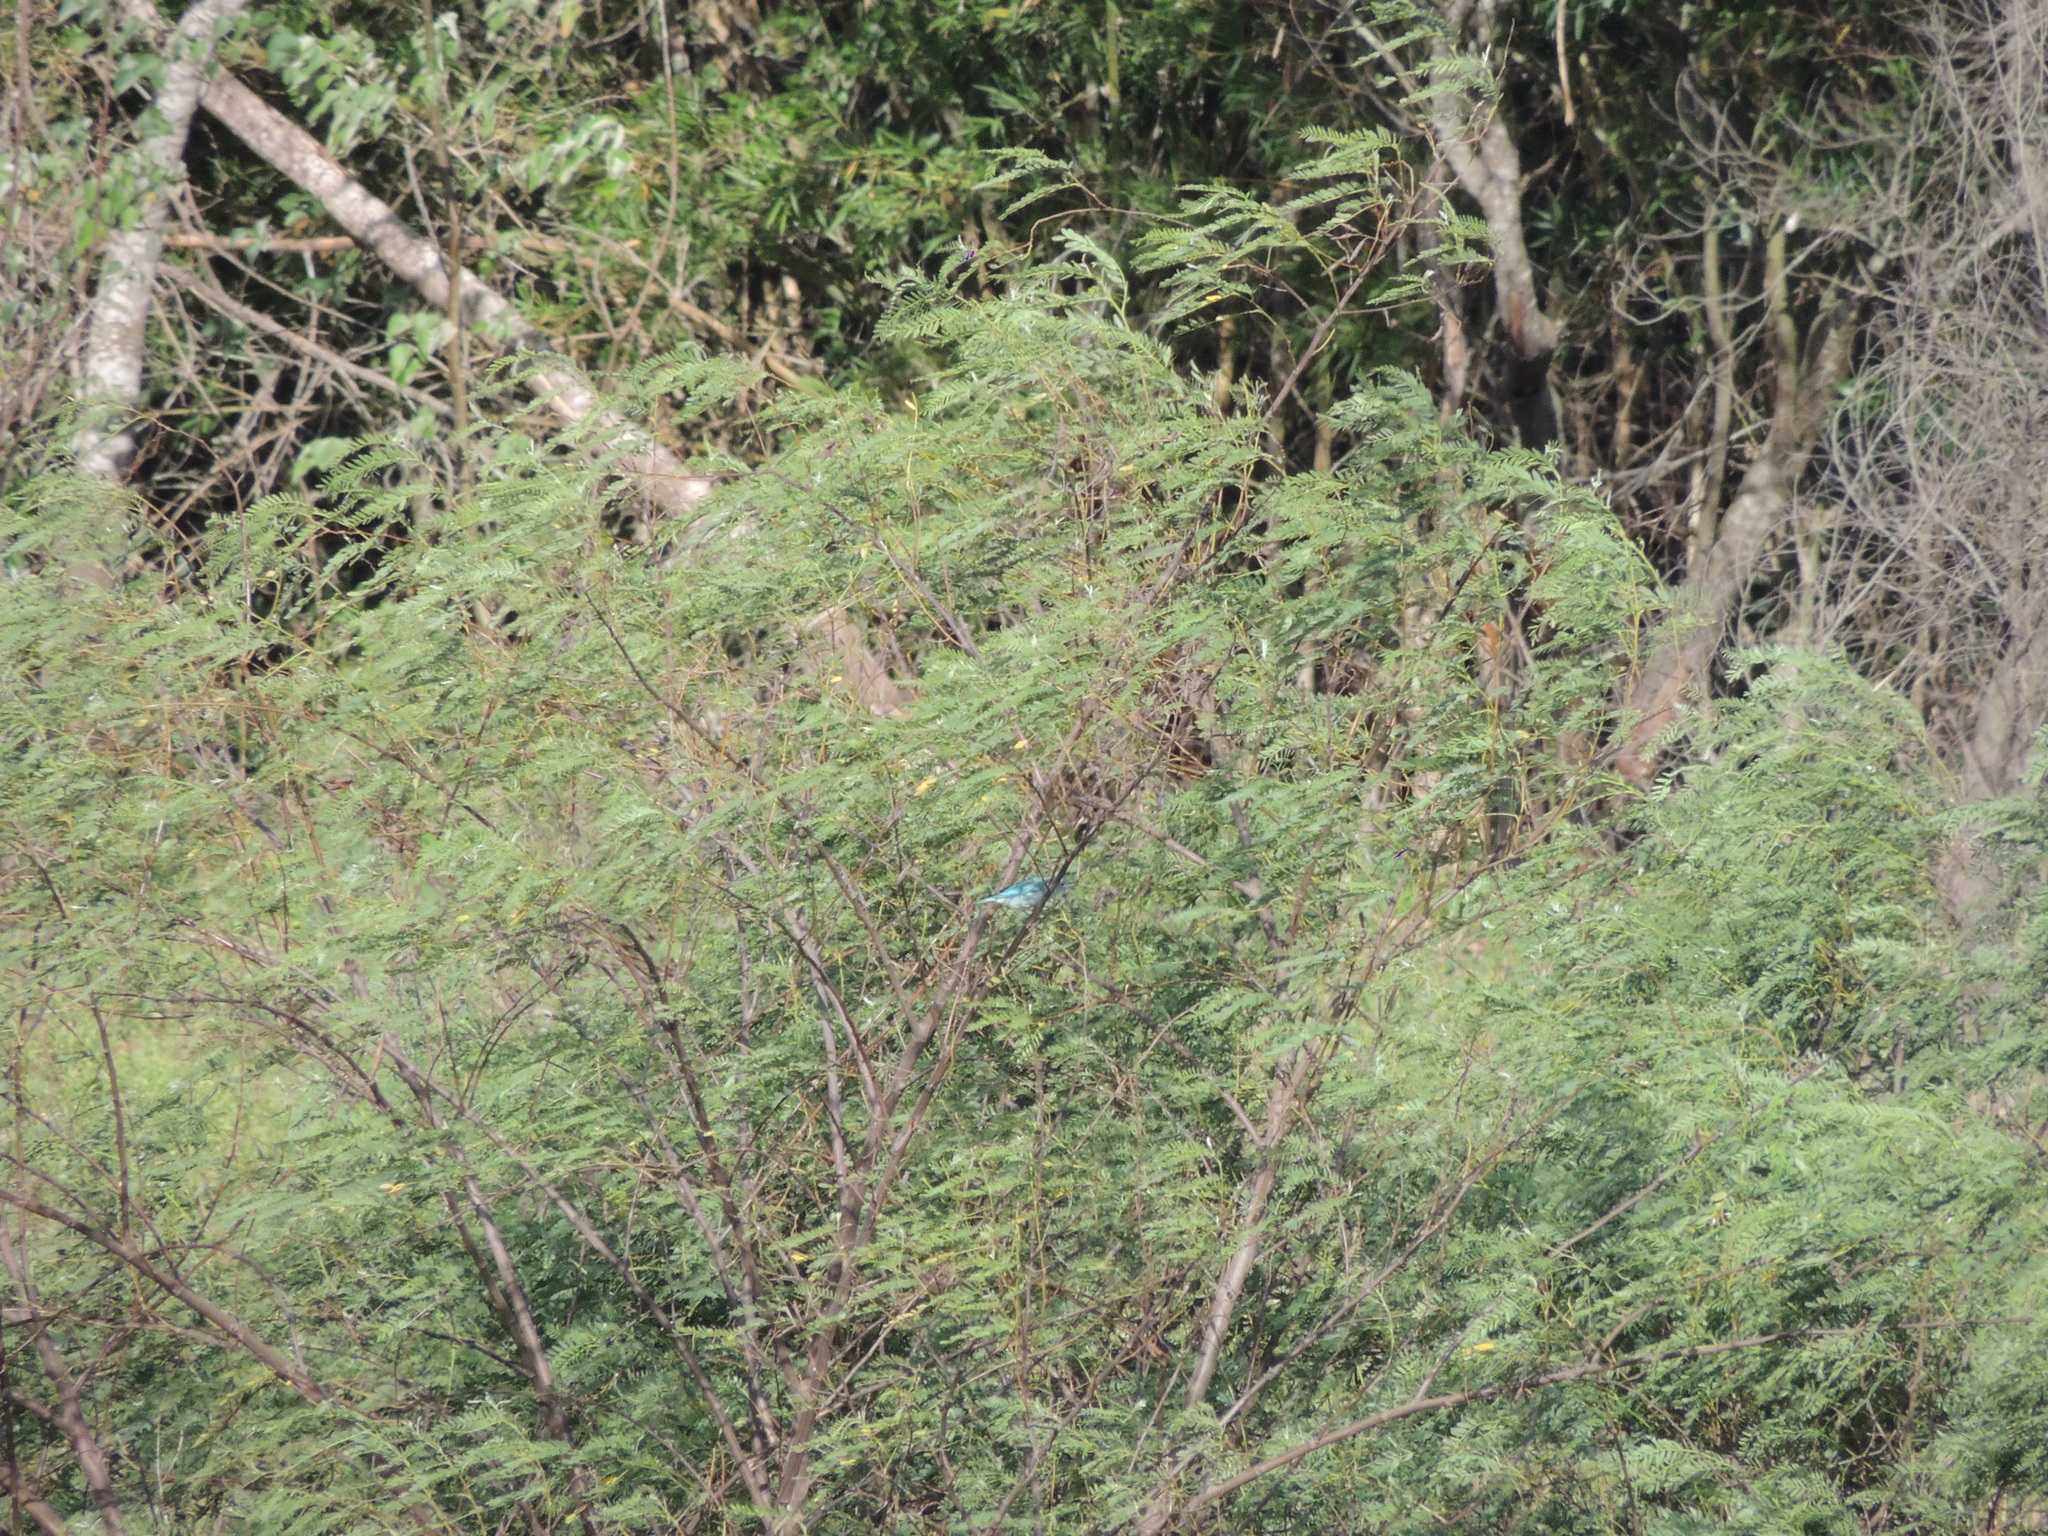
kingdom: Animalia
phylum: Chordata
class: Aves
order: Passeriformes
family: Thraupidae
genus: Thraupis
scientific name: Thraupis sayaca
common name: Sayaca tanager
